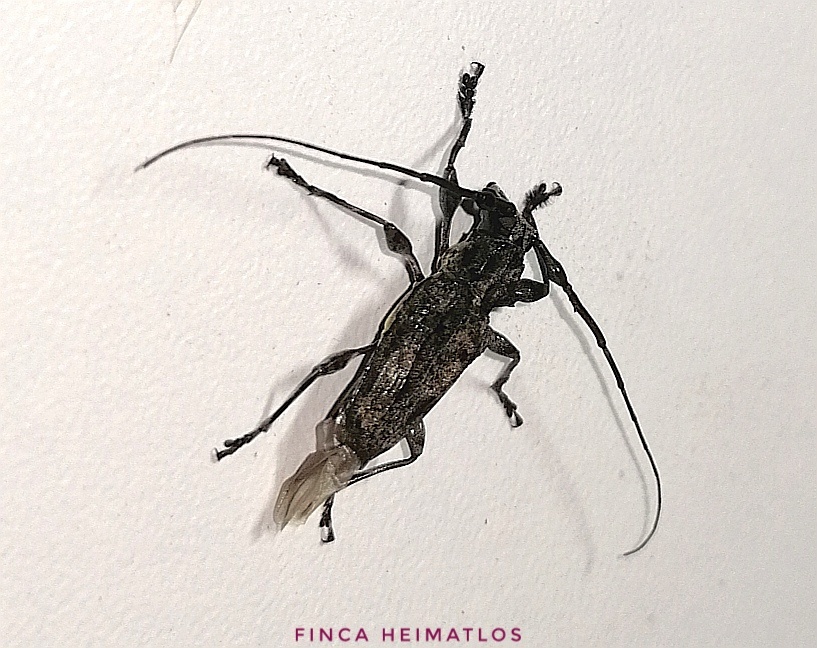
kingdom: Animalia
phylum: Arthropoda
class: Insecta
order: Coleoptera
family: Cerambycidae
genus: Steirastoma
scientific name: Steirastoma aethiops
